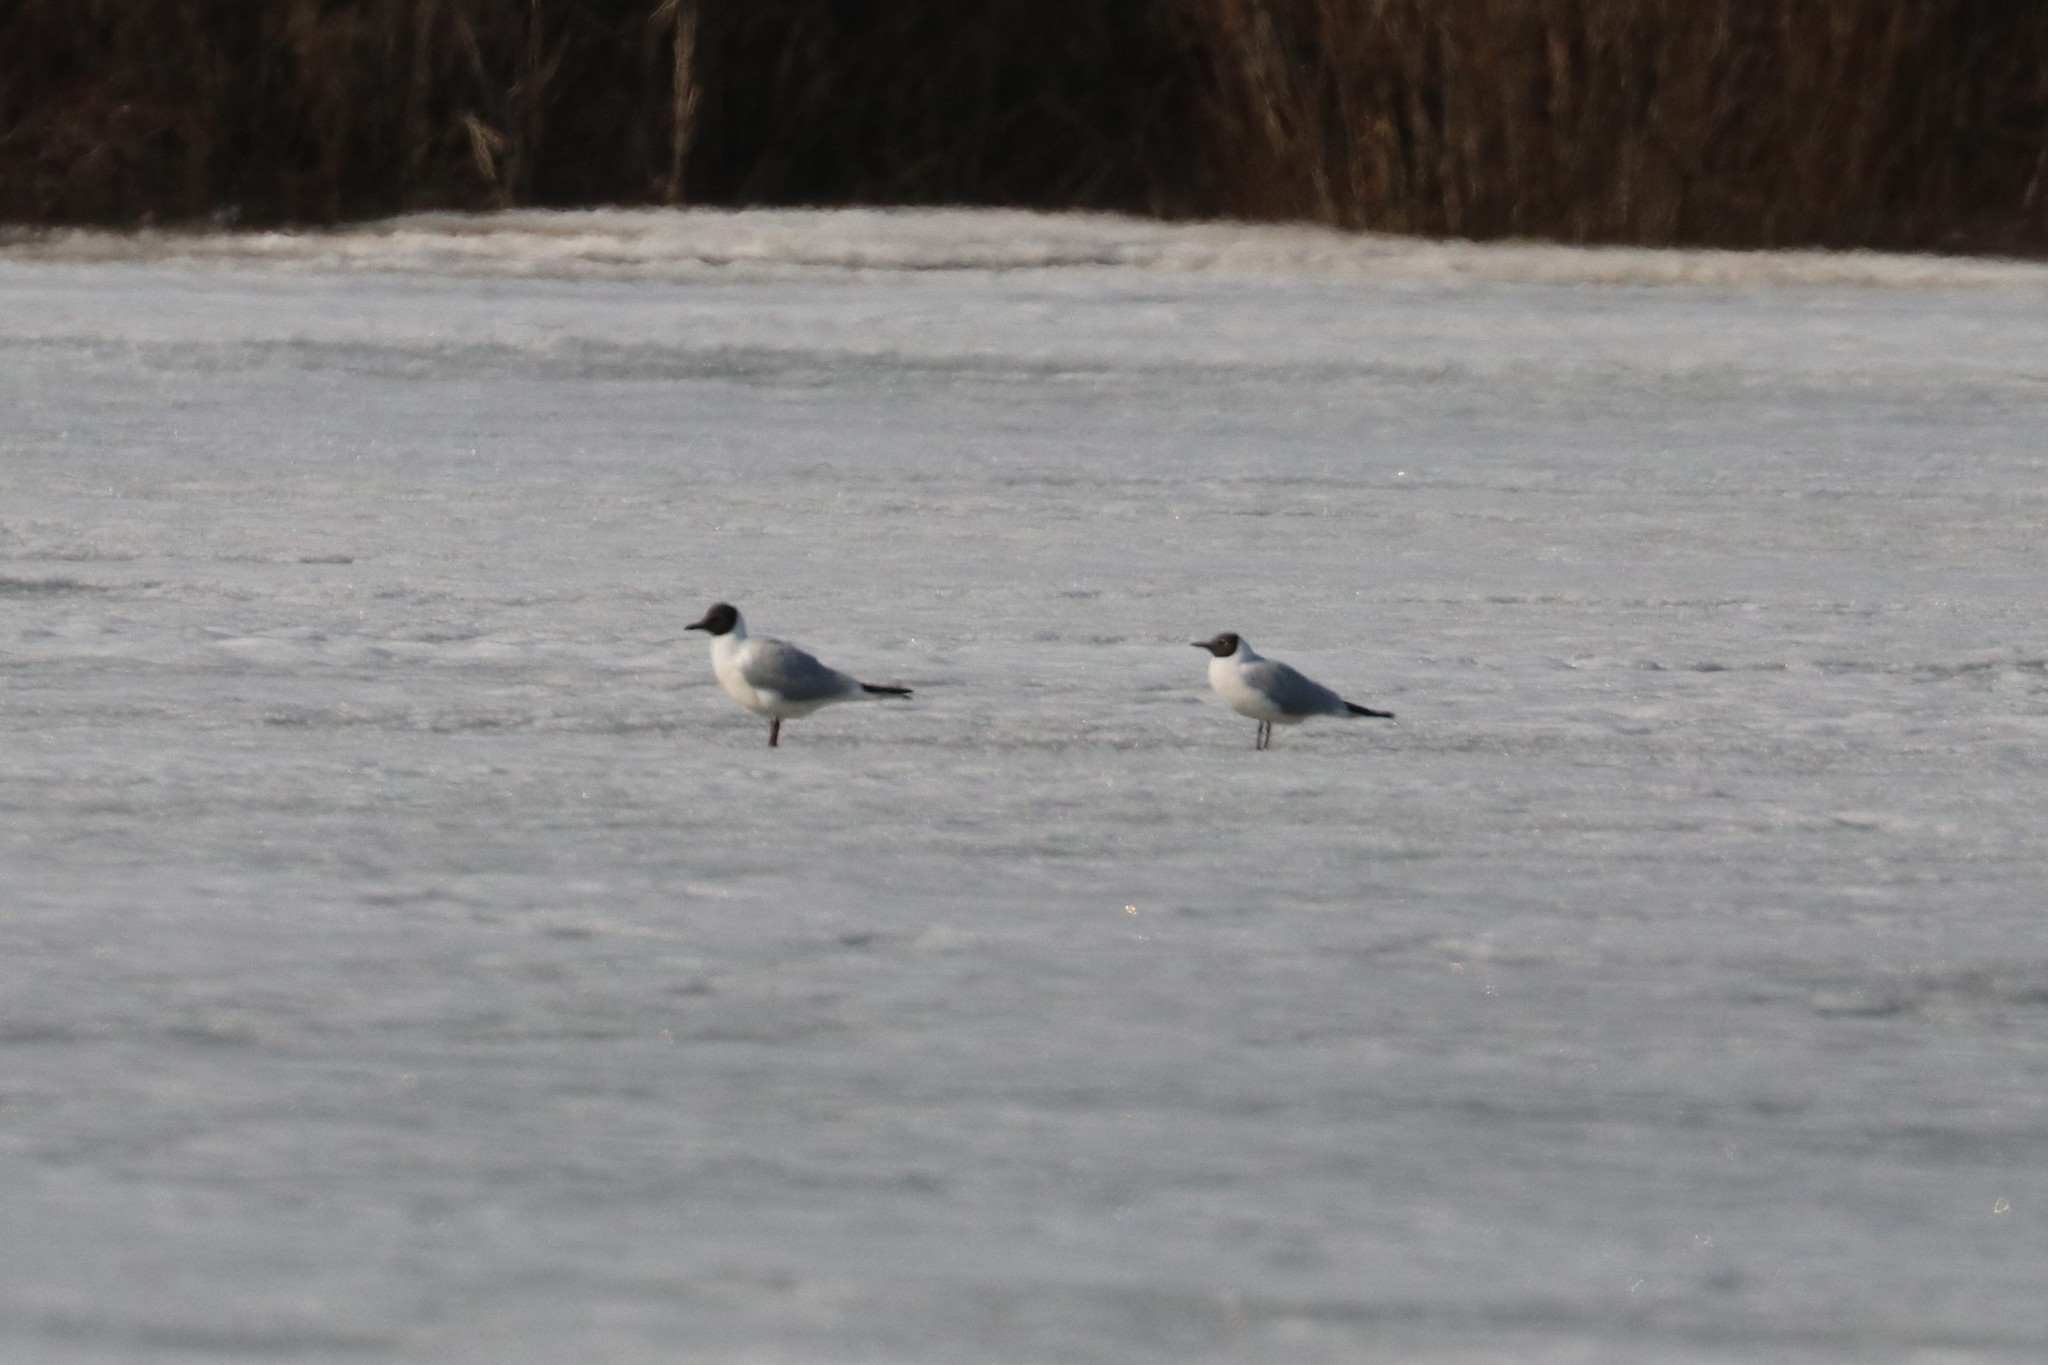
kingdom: Animalia
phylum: Chordata
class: Aves
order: Charadriiformes
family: Laridae
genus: Chroicocephalus
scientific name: Chroicocephalus ridibundus
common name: Black-headed gull
